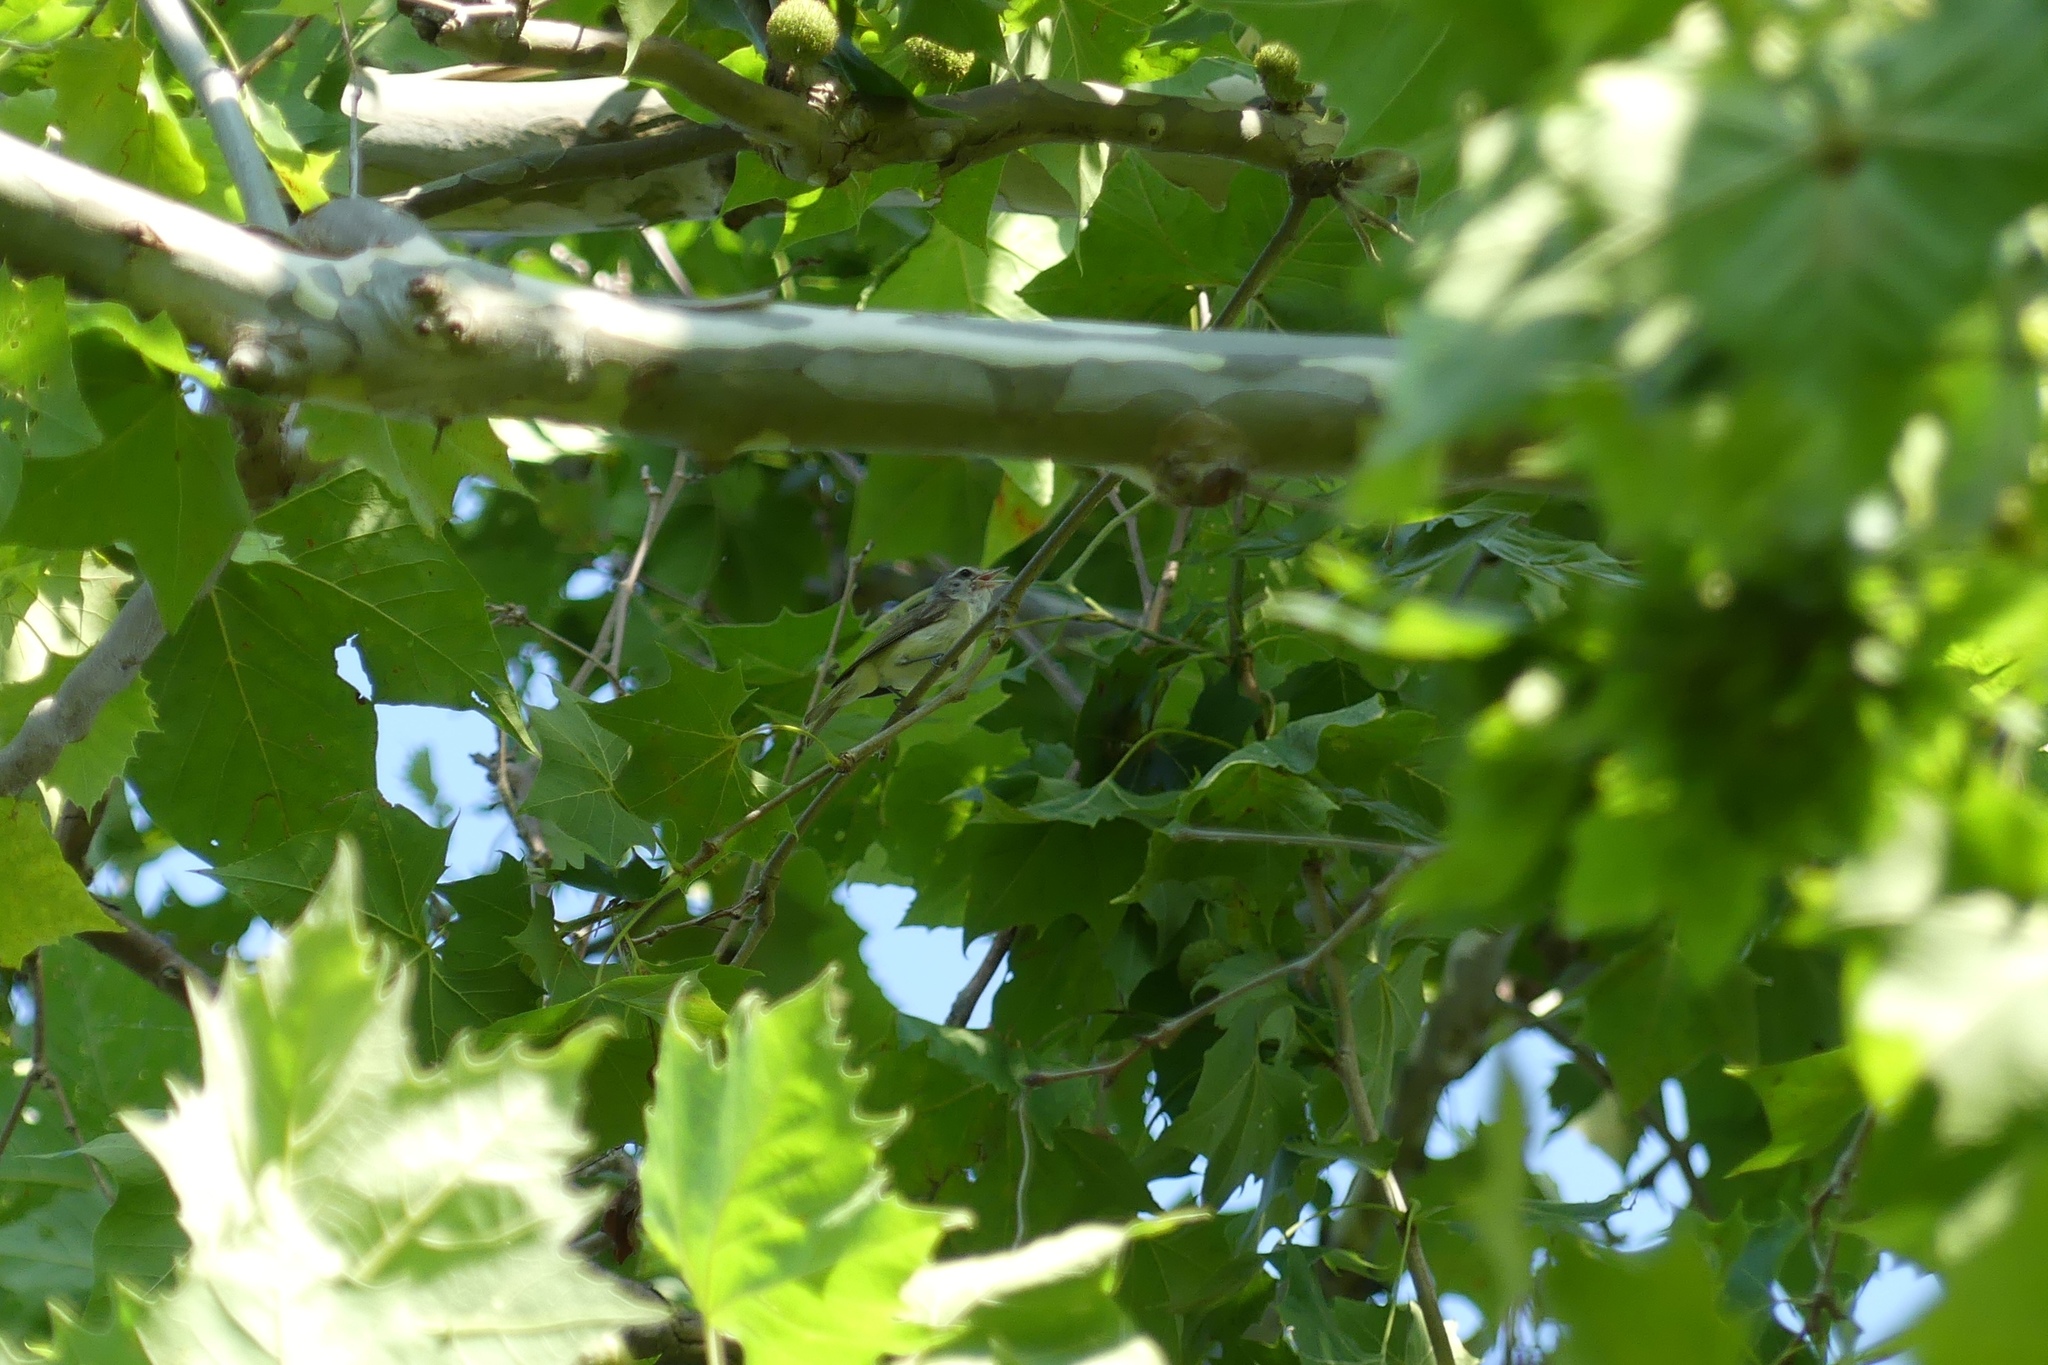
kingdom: Animalia
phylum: Chordata
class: Aves
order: Passeriformes
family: Vireonidae
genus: Vireo
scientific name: Vireo gilvus
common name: Warbling vireo
